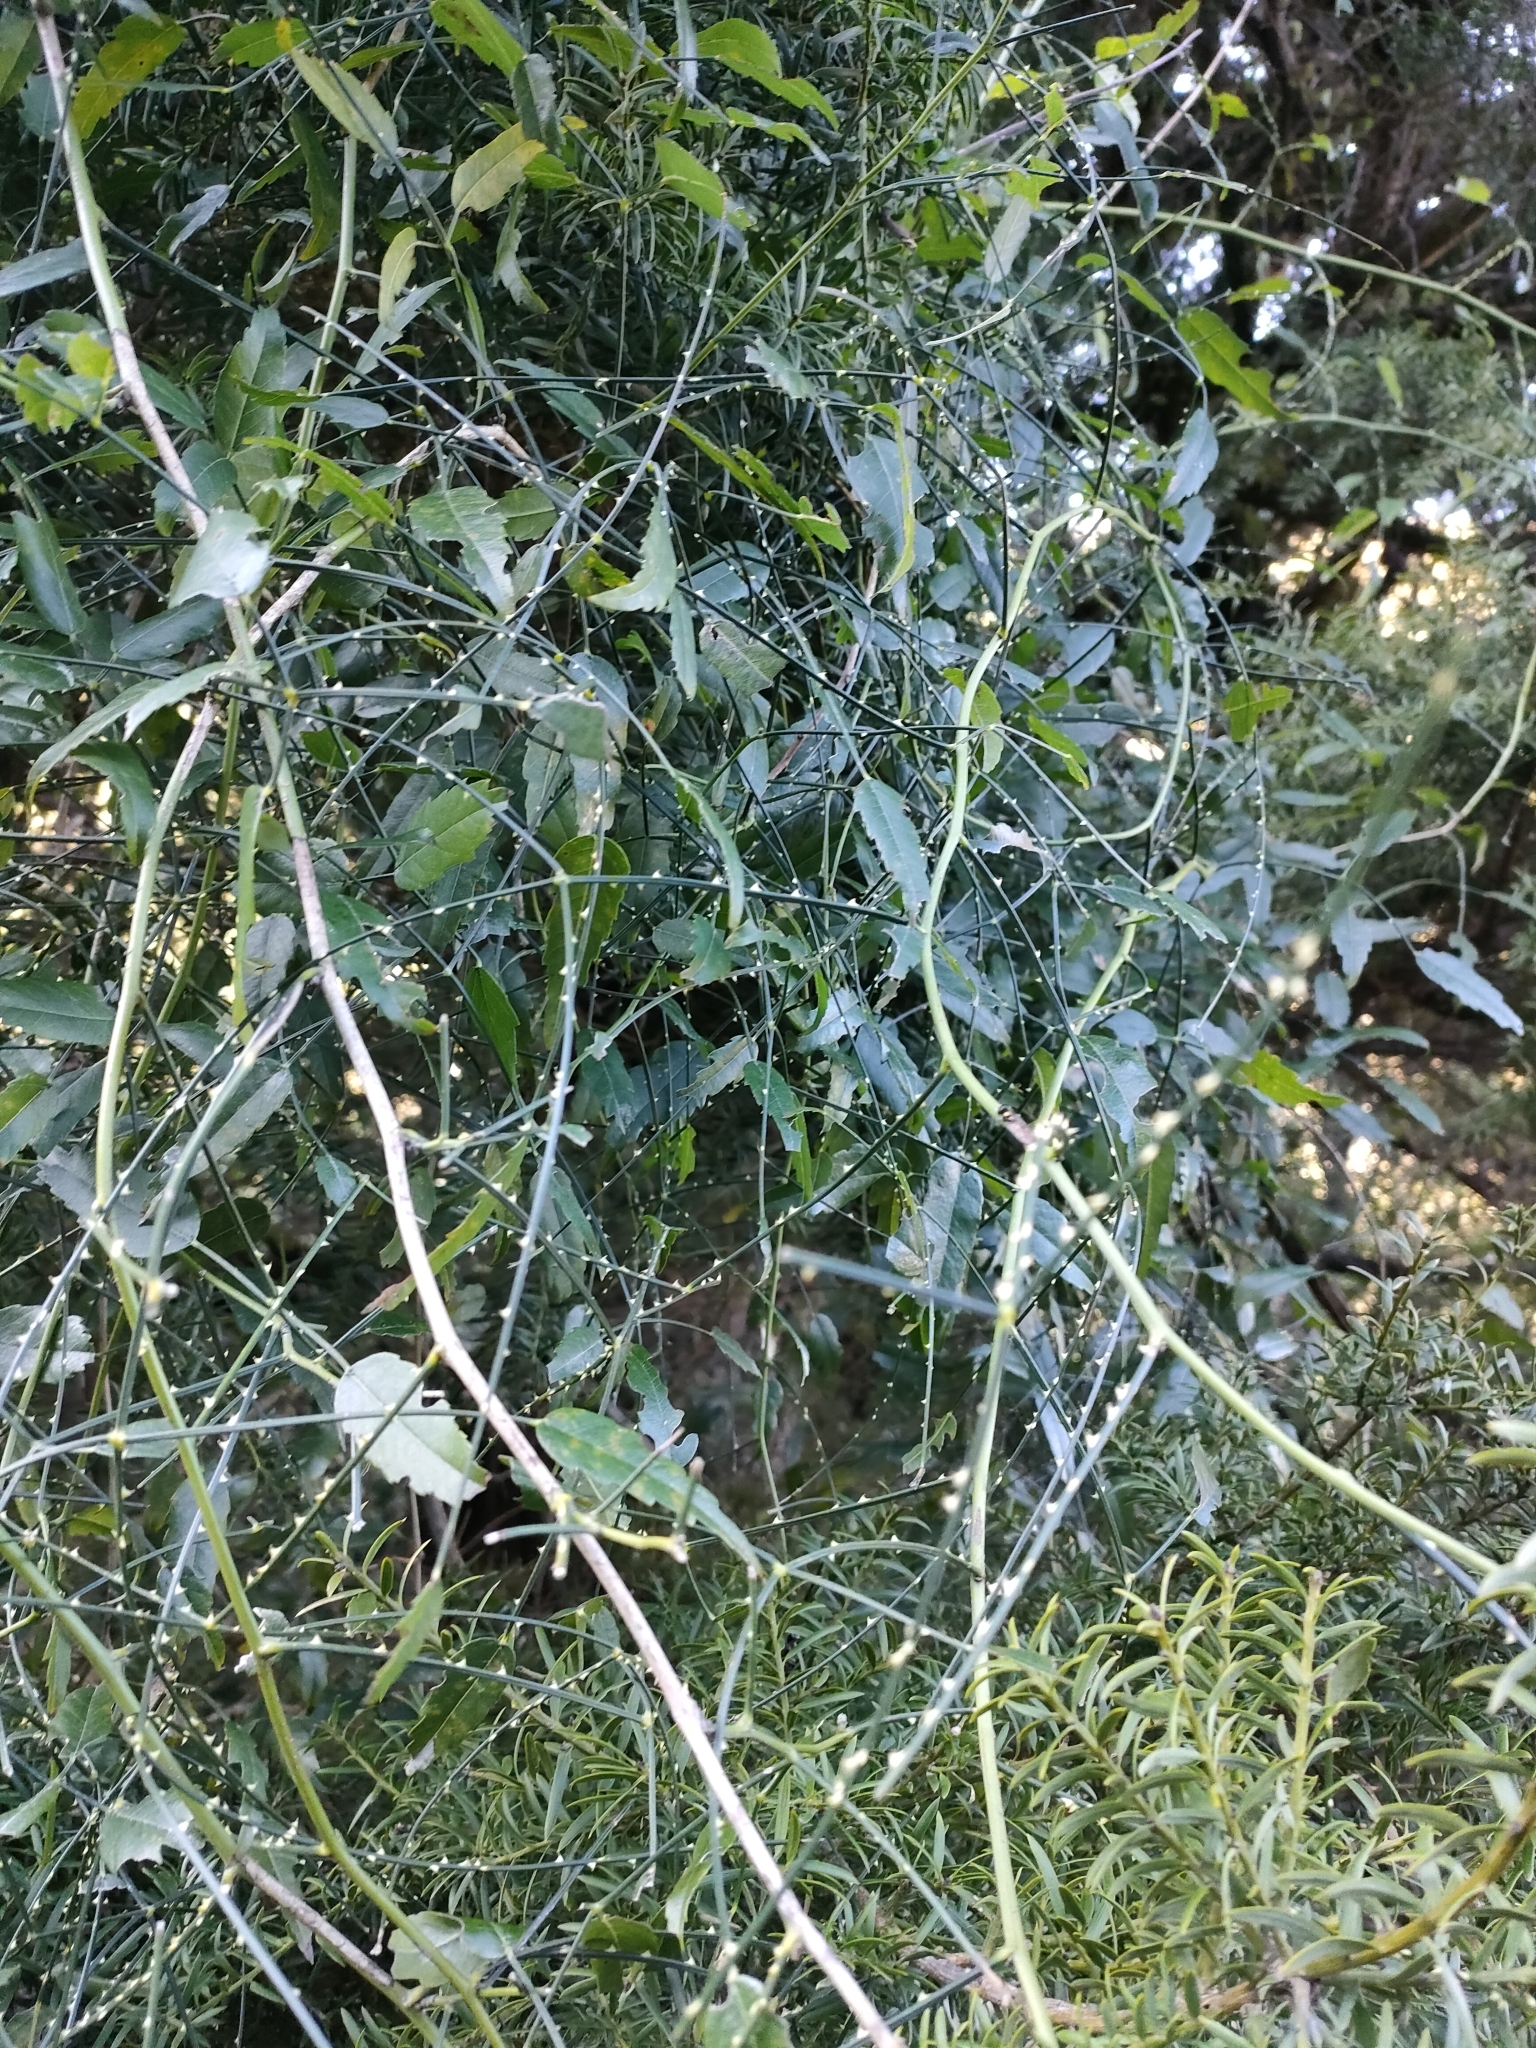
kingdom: Plantae
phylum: Tracheophyta
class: Magnoliopsida
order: Rosales
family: Rosaceae
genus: Rubus
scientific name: Rubus squarrosus
